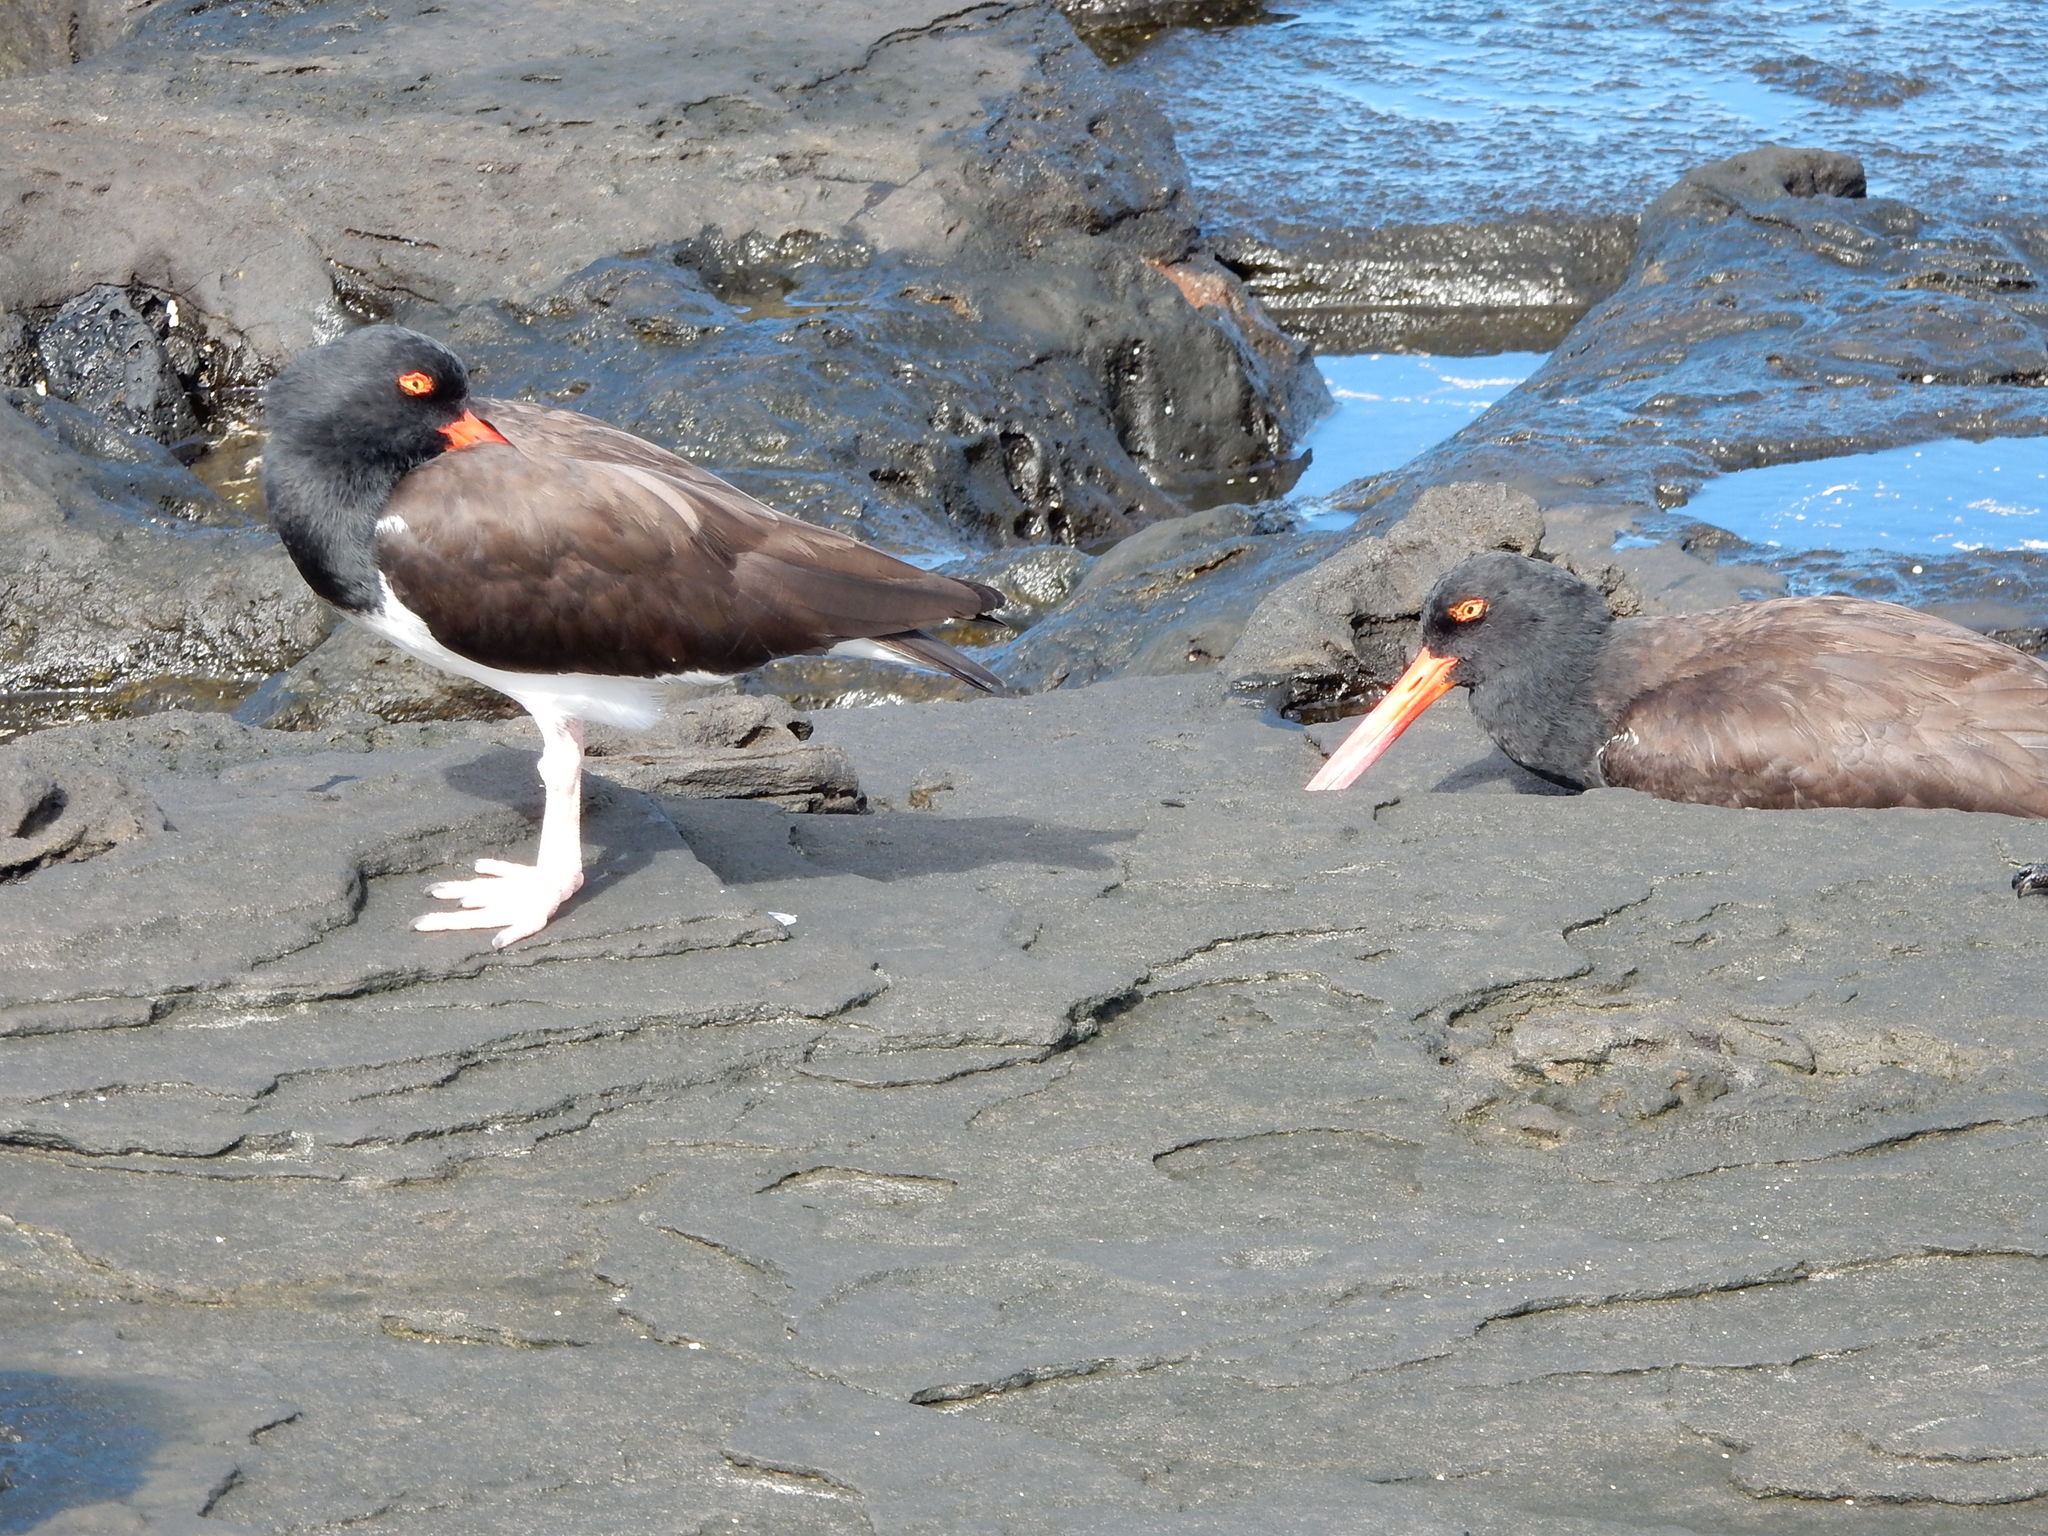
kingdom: Animalia
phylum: Chordata
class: Aves
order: Charadriiformes
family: Haematopodidae
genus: Haematopus
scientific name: Haematopus palliatus
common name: American oystercatcher
